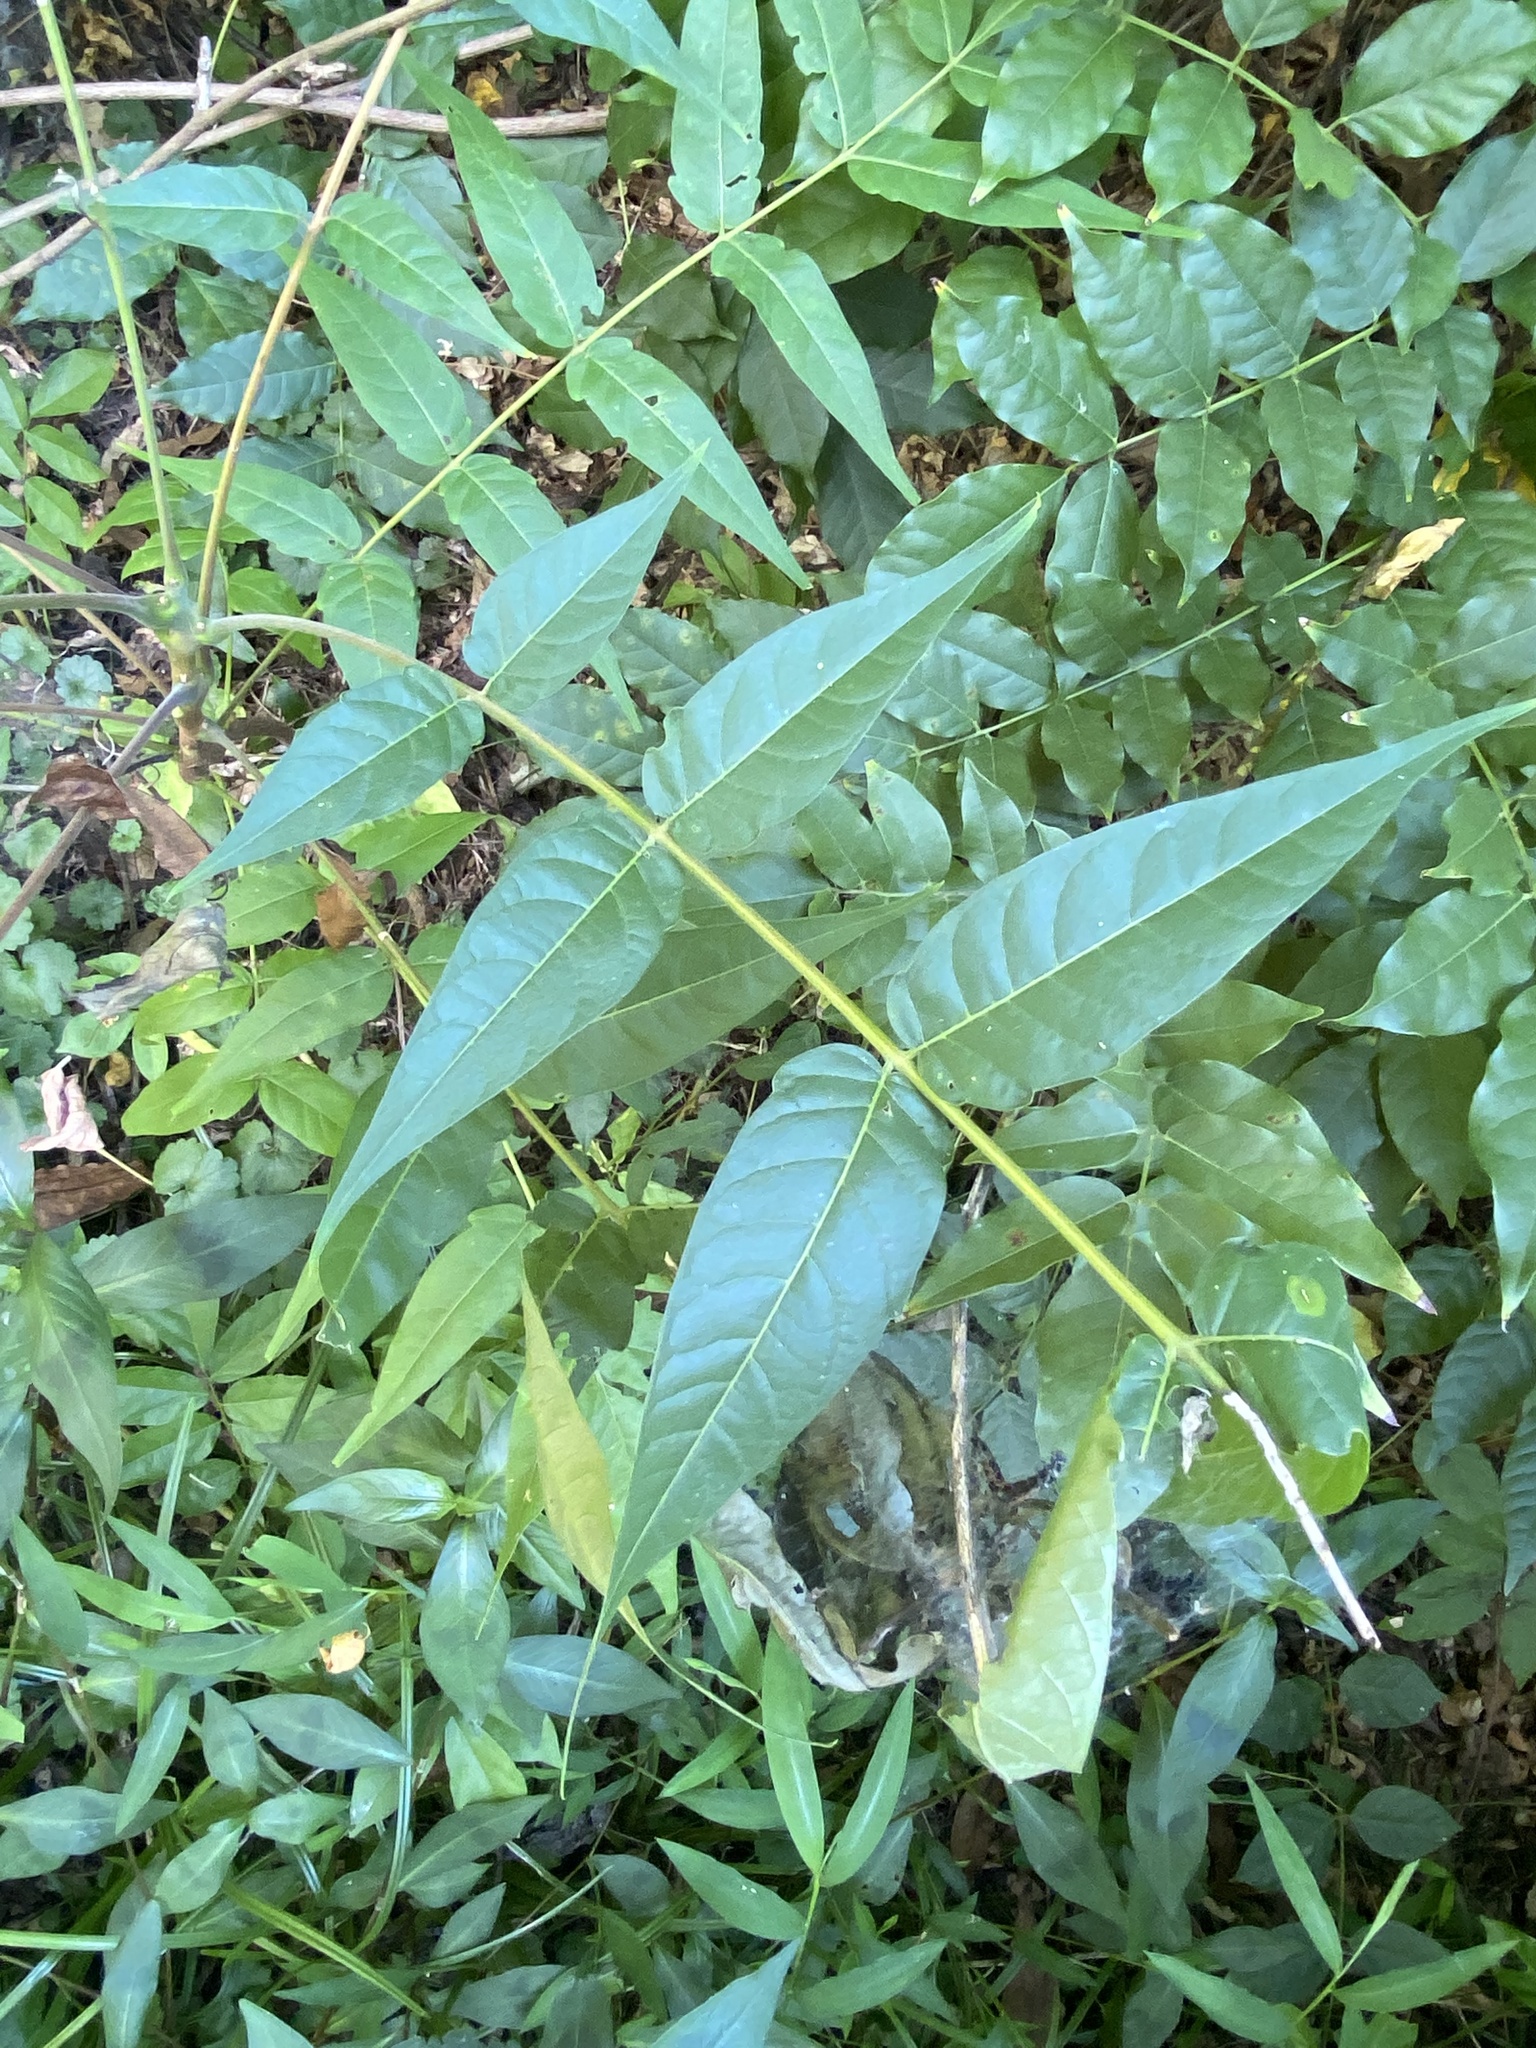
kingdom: Animalia
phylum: Arthropoda
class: Insecta
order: Lepidoptera
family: Attevidae
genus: Atteva
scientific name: Atteva punctella
